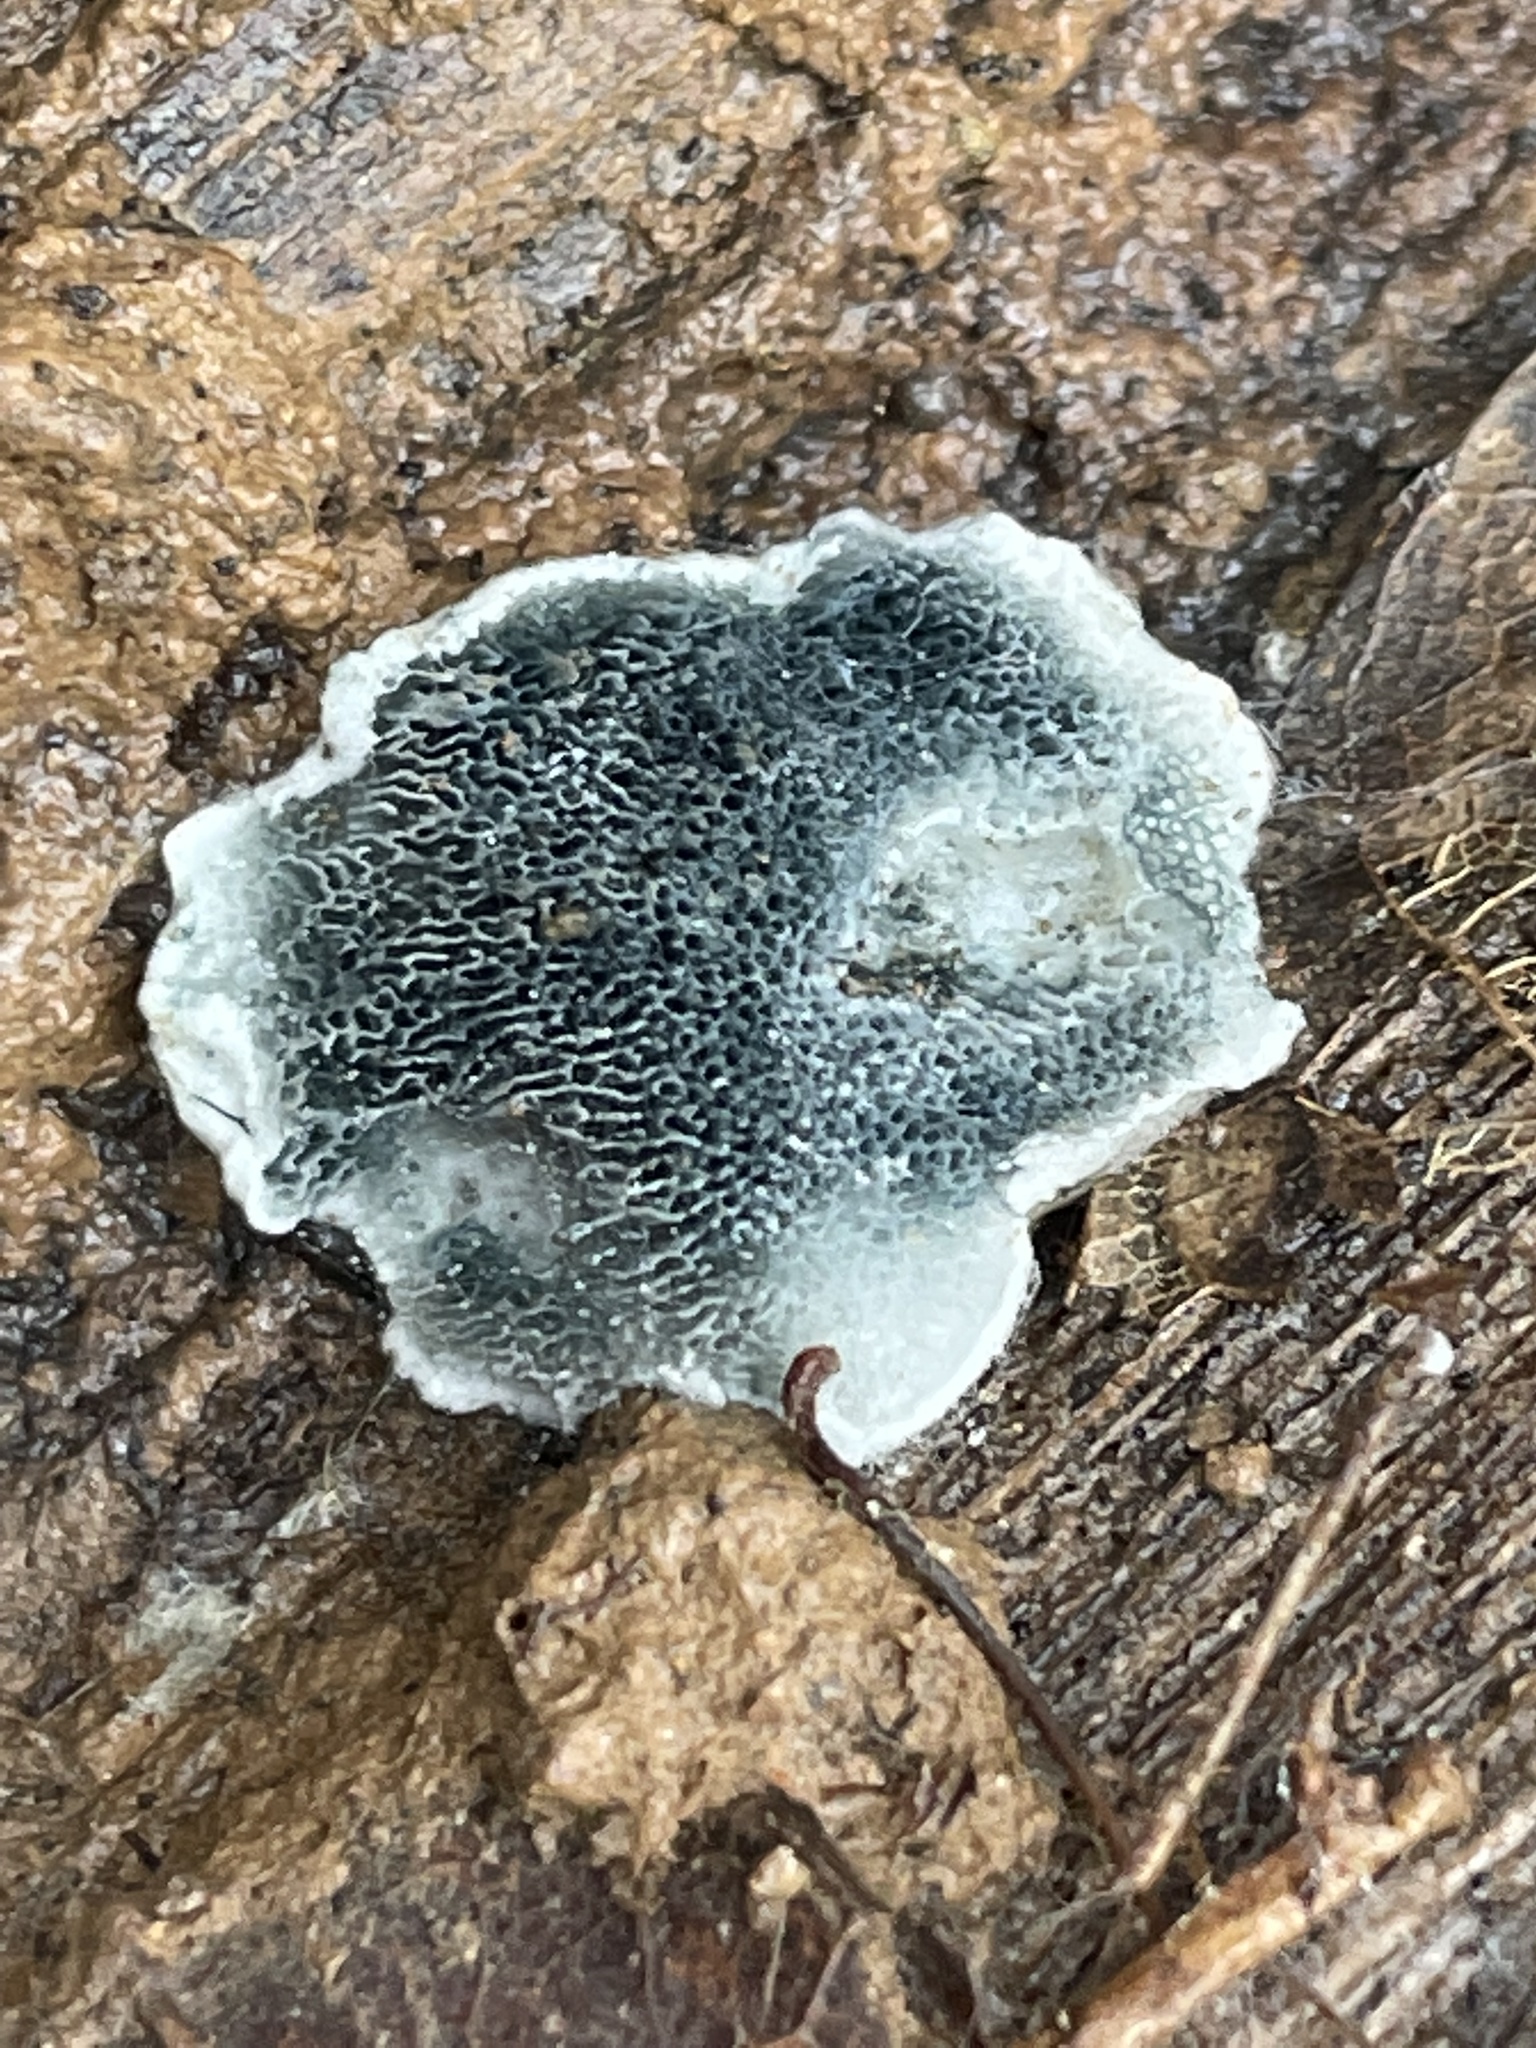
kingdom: Fungi
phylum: Basidiomycota
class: Agaricomycetes
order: Polyporales
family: Polyporaceae
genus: Cyanosporus
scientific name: Cyanosporus caesius
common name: Blue cheese polypore
